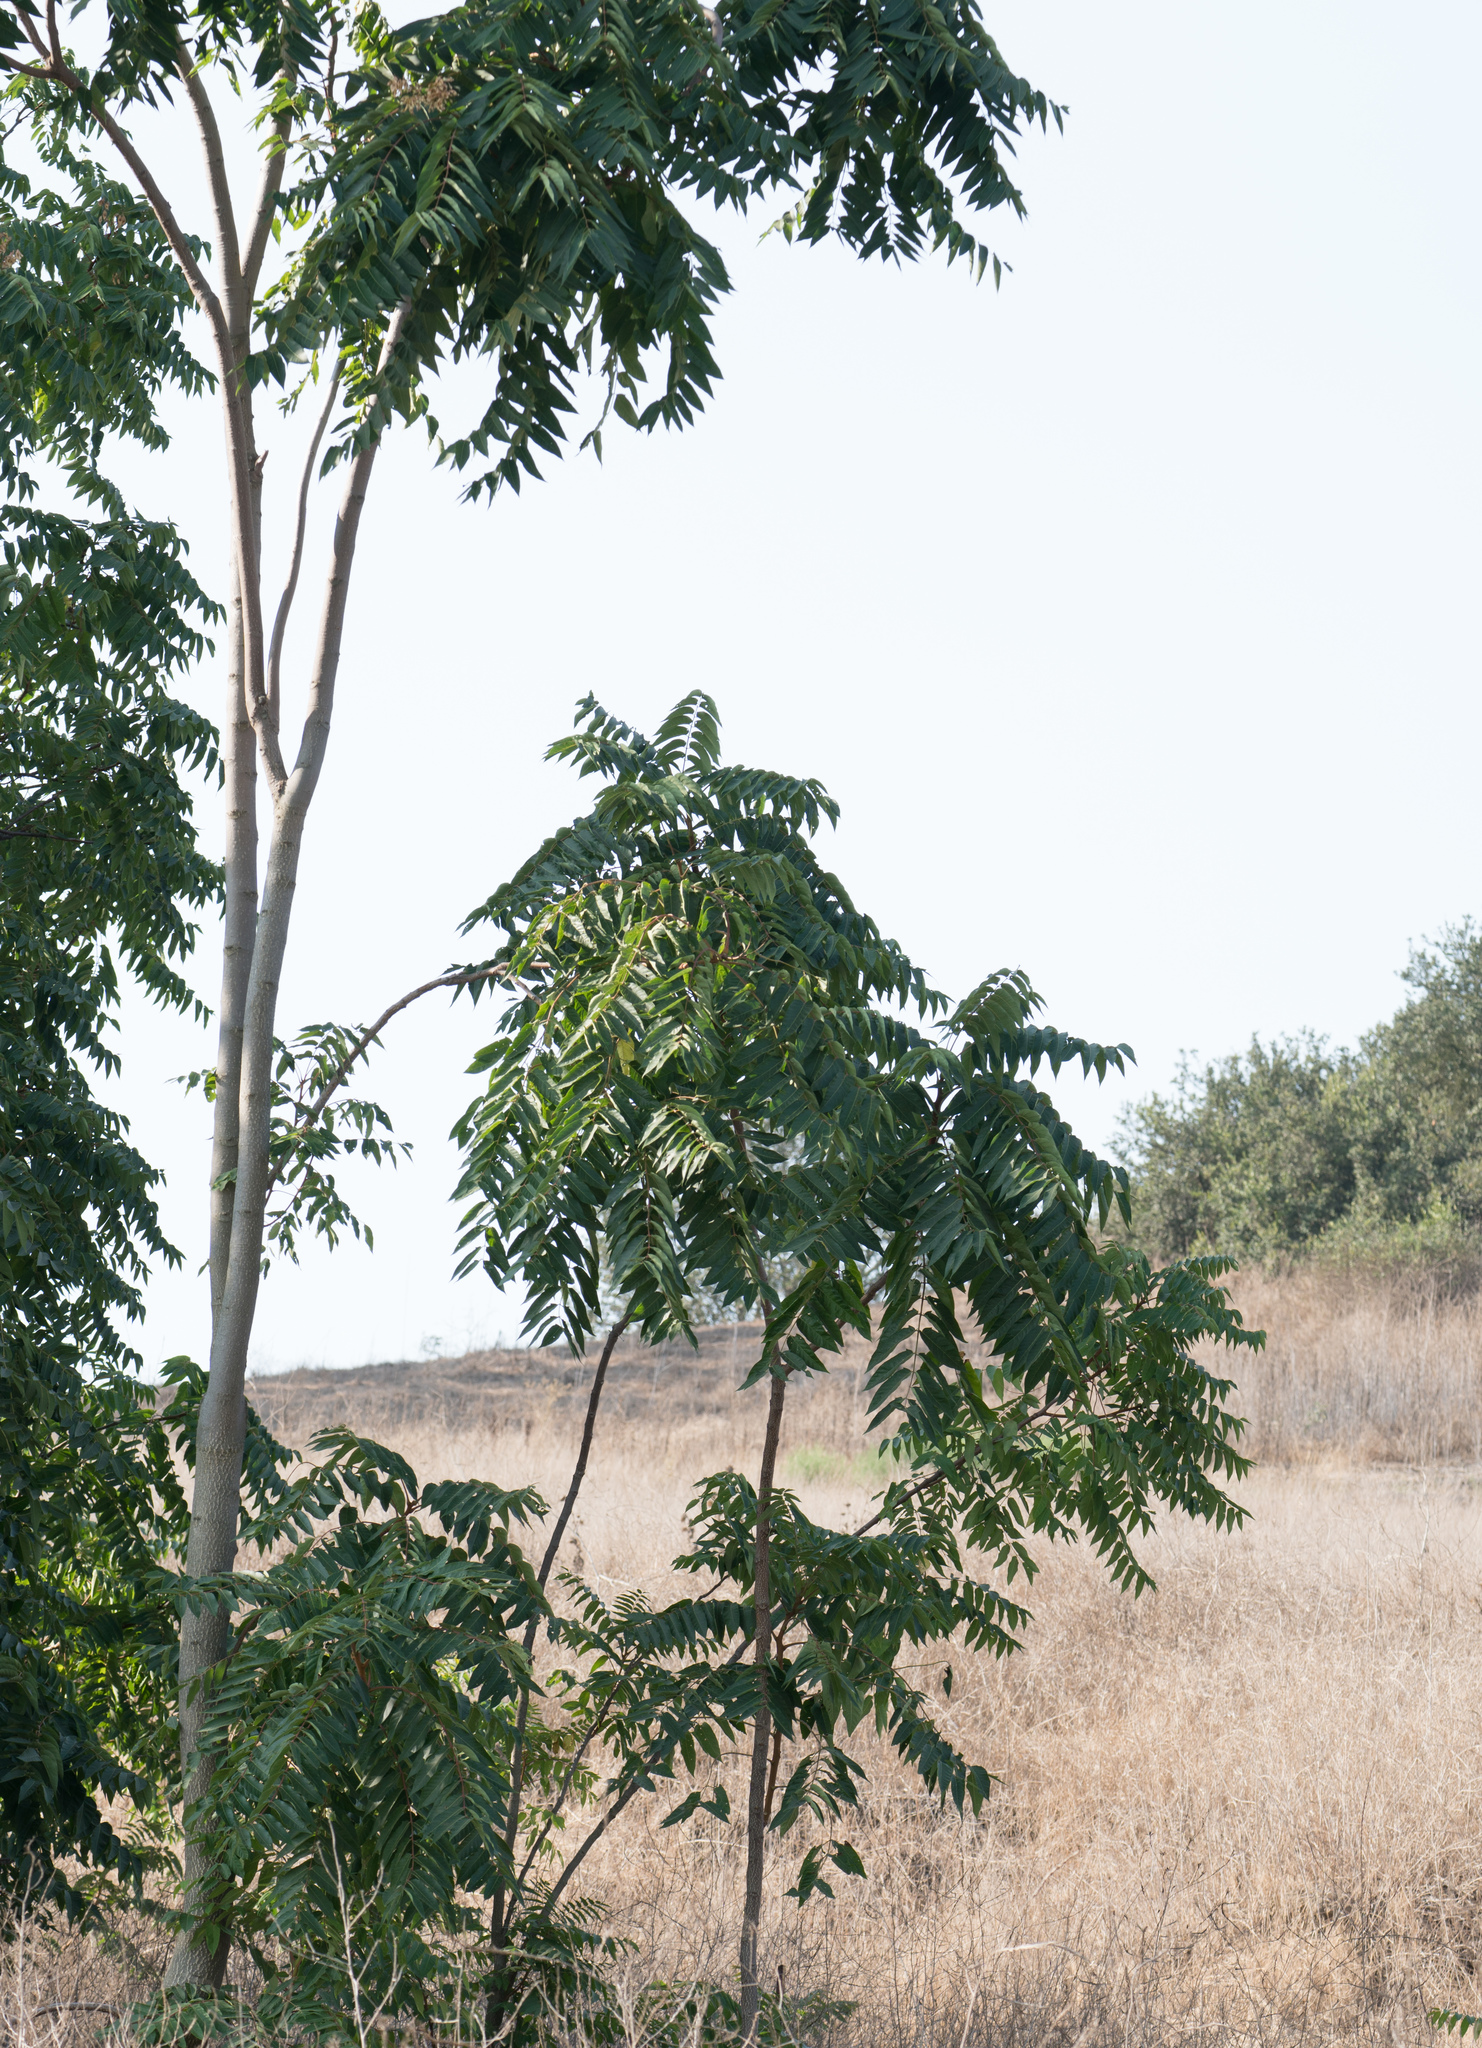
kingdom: Plantae
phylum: Tracheophyta
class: Magnoliopsida
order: Sapindales
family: Simaroubaceae
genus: Ailanthus
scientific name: Ailanthus altissima
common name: Tree-of-heaven
